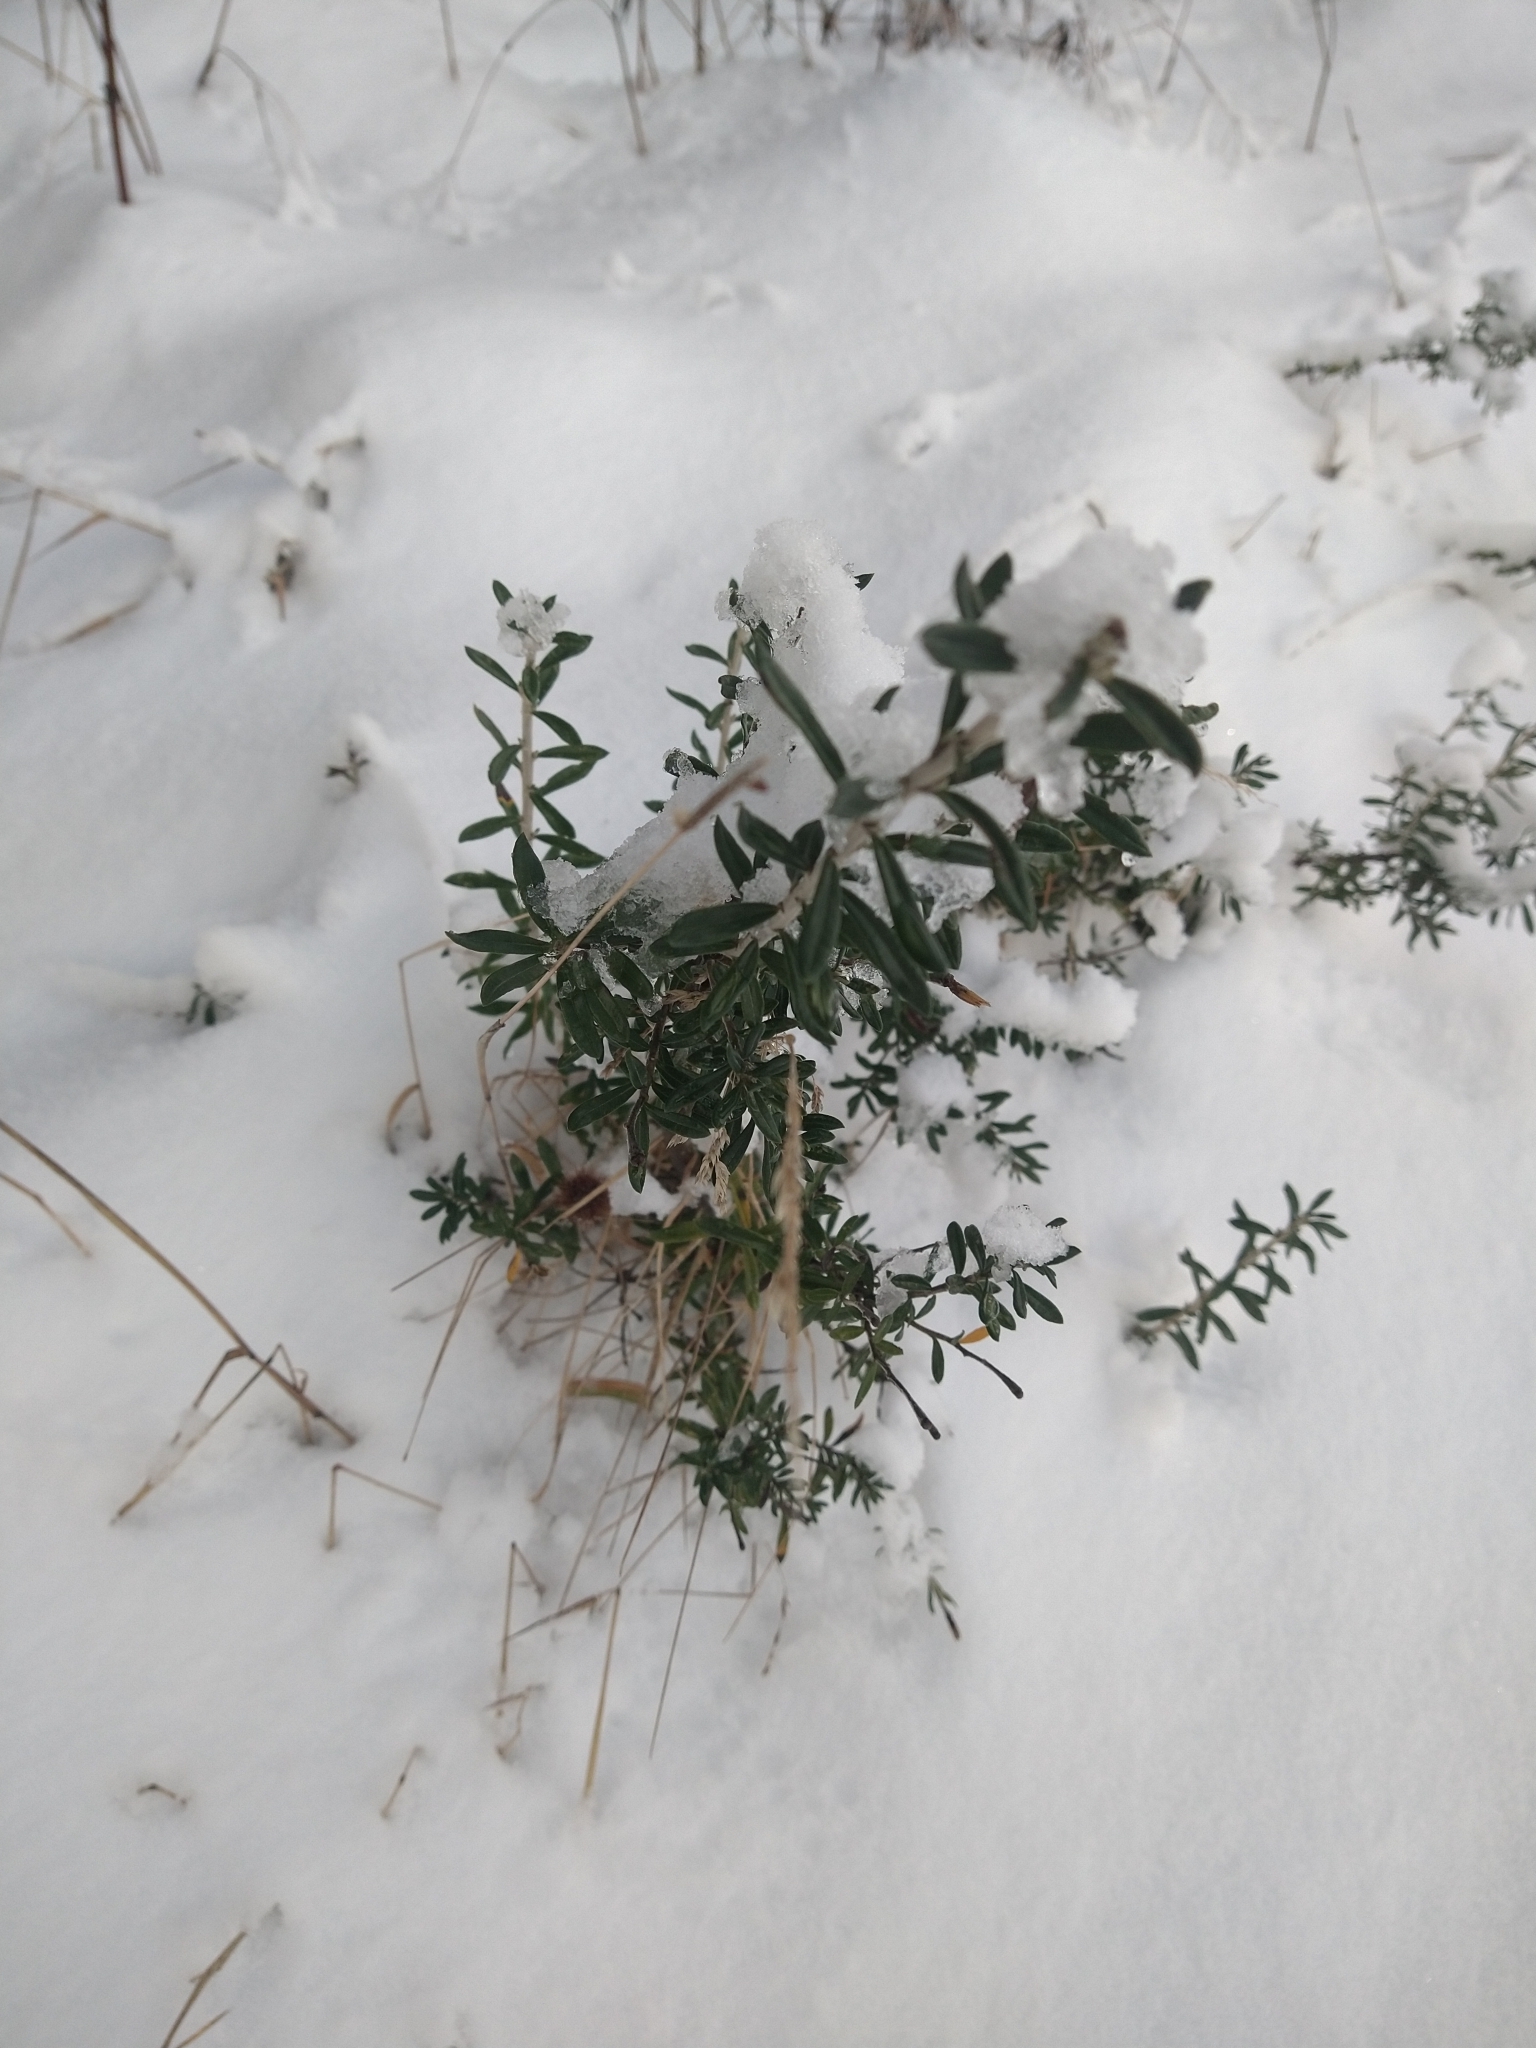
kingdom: Plantae
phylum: Tracheophyta
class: Magnoliopsida
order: Asterales
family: Asteraceae
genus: Chiliotrichum
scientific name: Chiliotrichum diffusum
